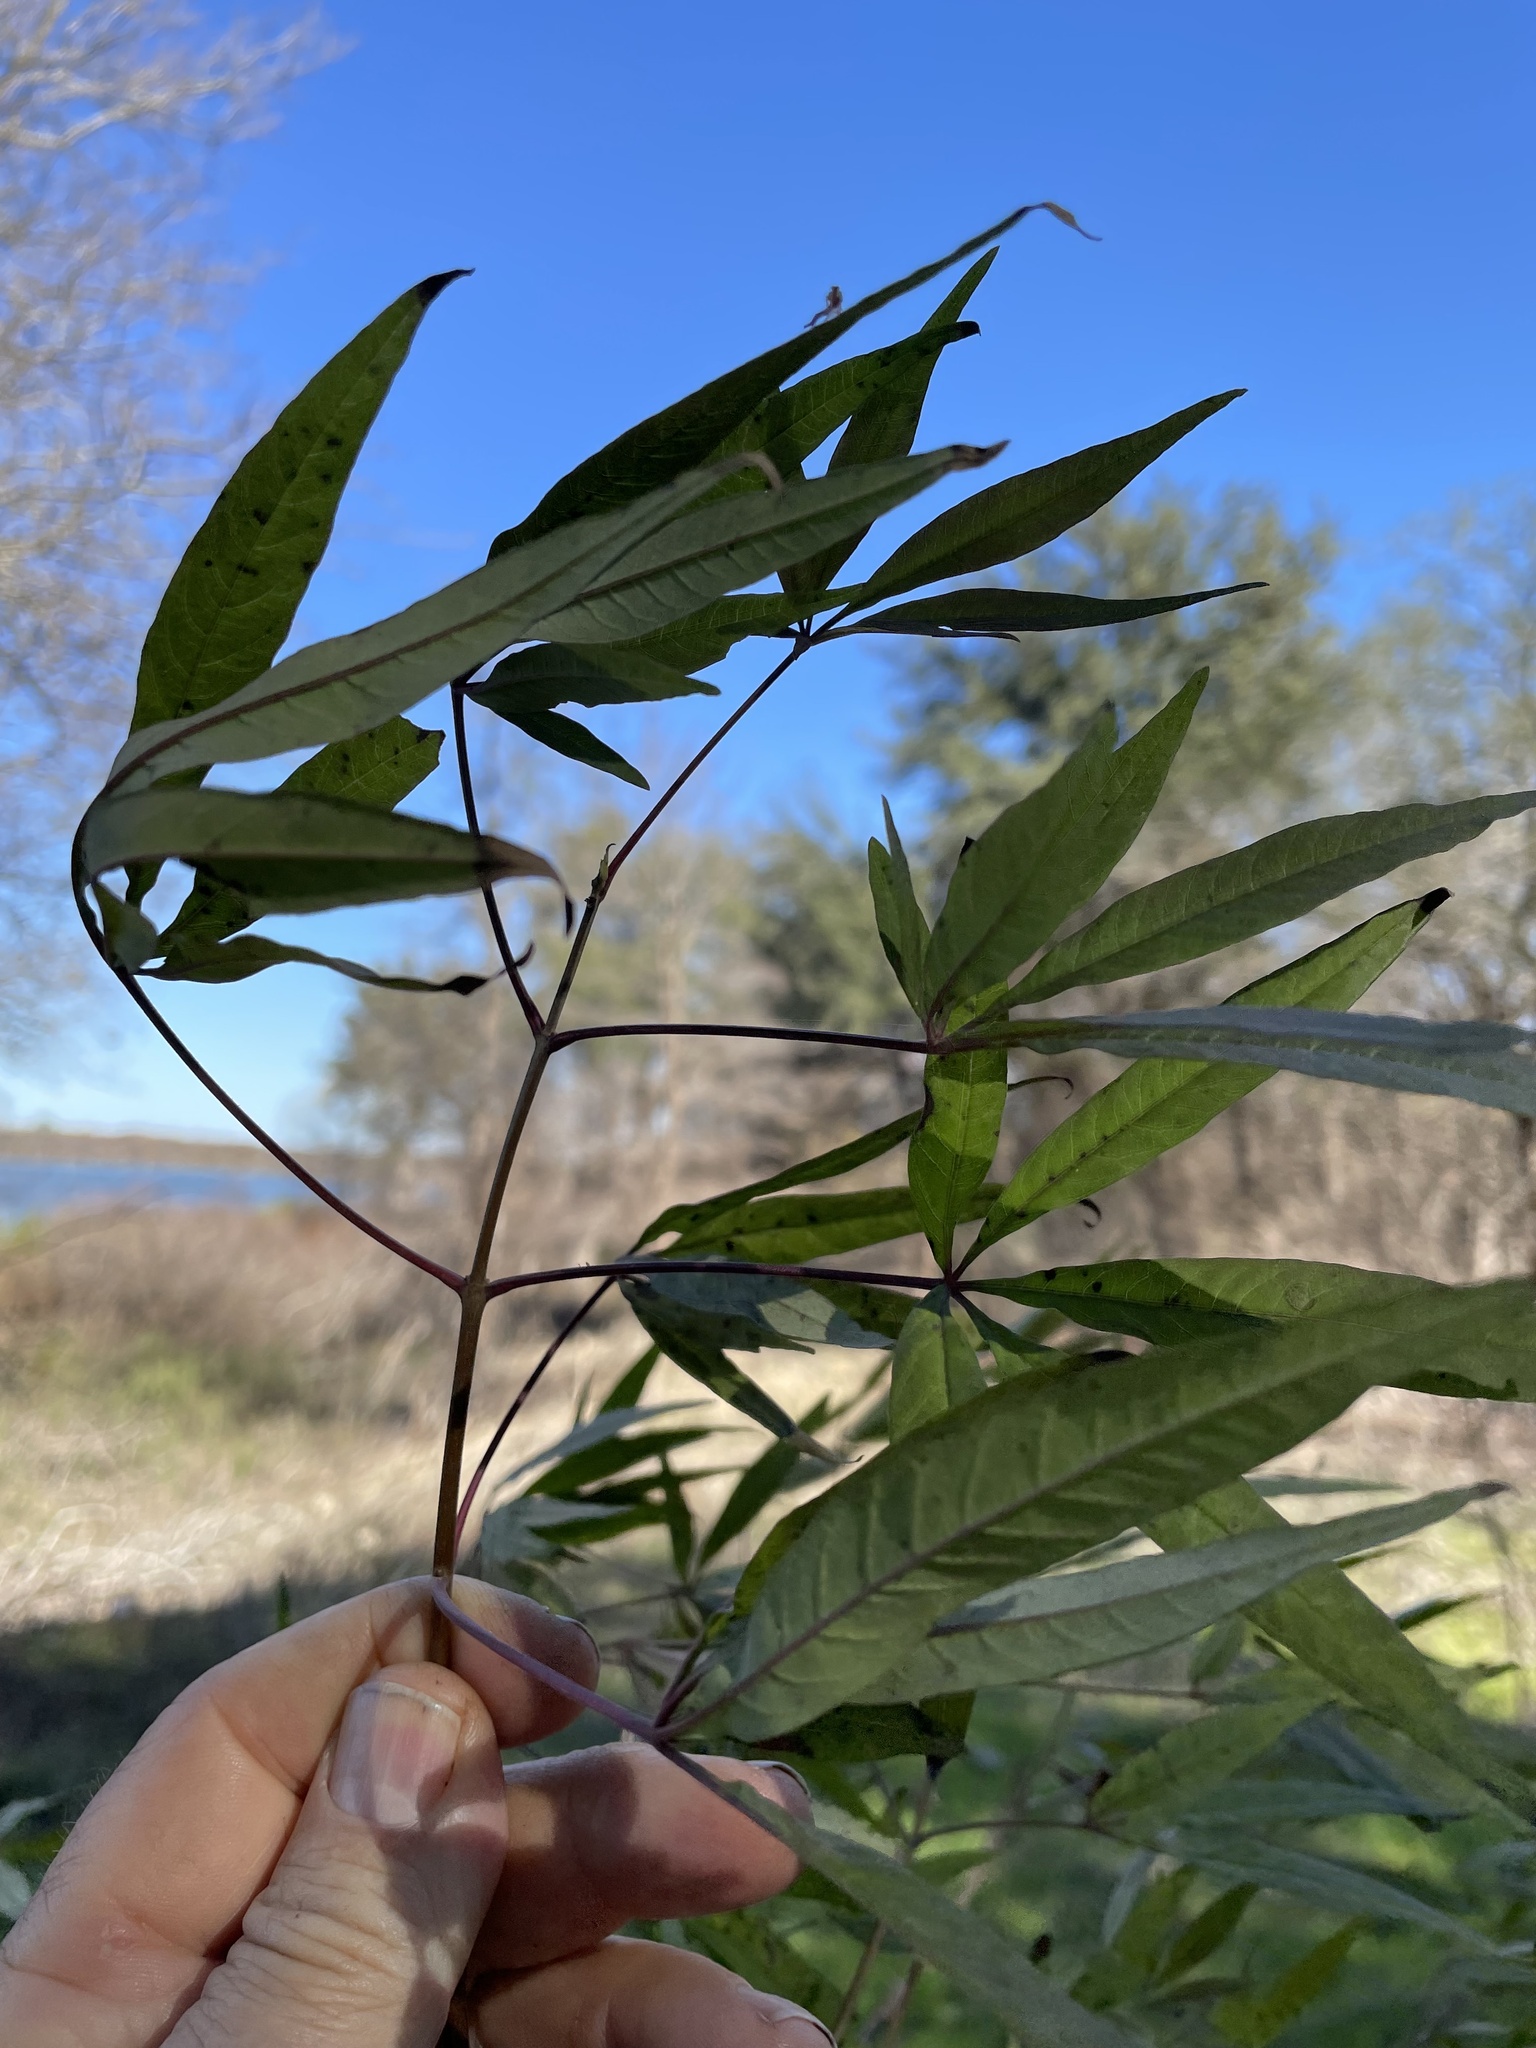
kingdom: Plantae
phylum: Tracheophyta
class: Magnoliopsida
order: Lamiales
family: Lamiaceae
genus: Vitex
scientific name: Vitex agnus-castus
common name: Chasteberry
